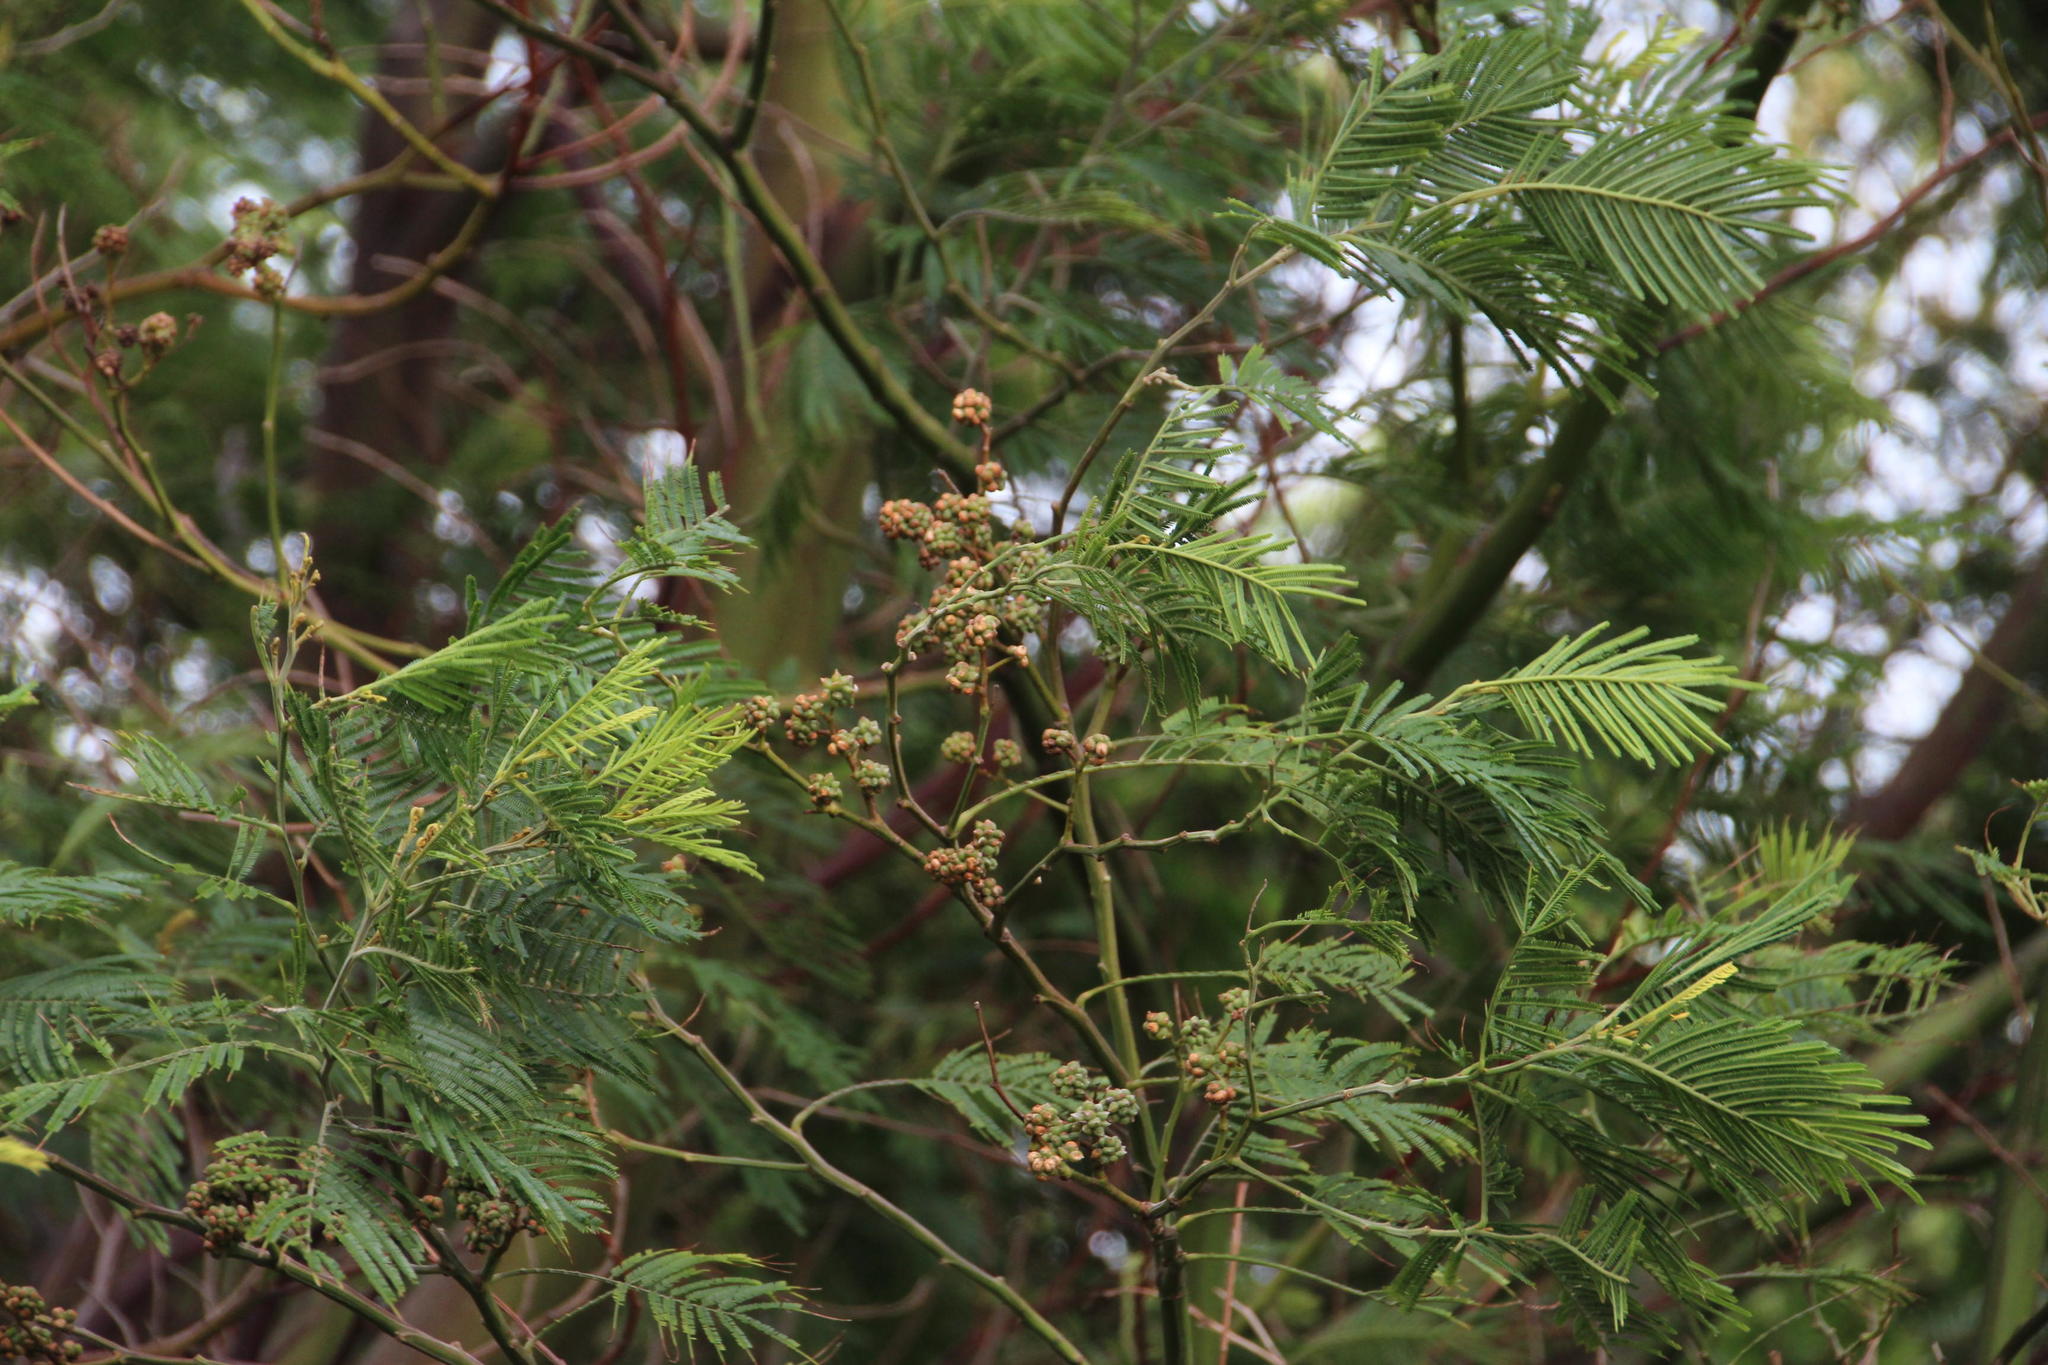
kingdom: Animalia
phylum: Arthropoda
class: Insecta
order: Diptera
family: Cecidomyiidae
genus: Dasineura
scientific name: Dasineura rubiformis
